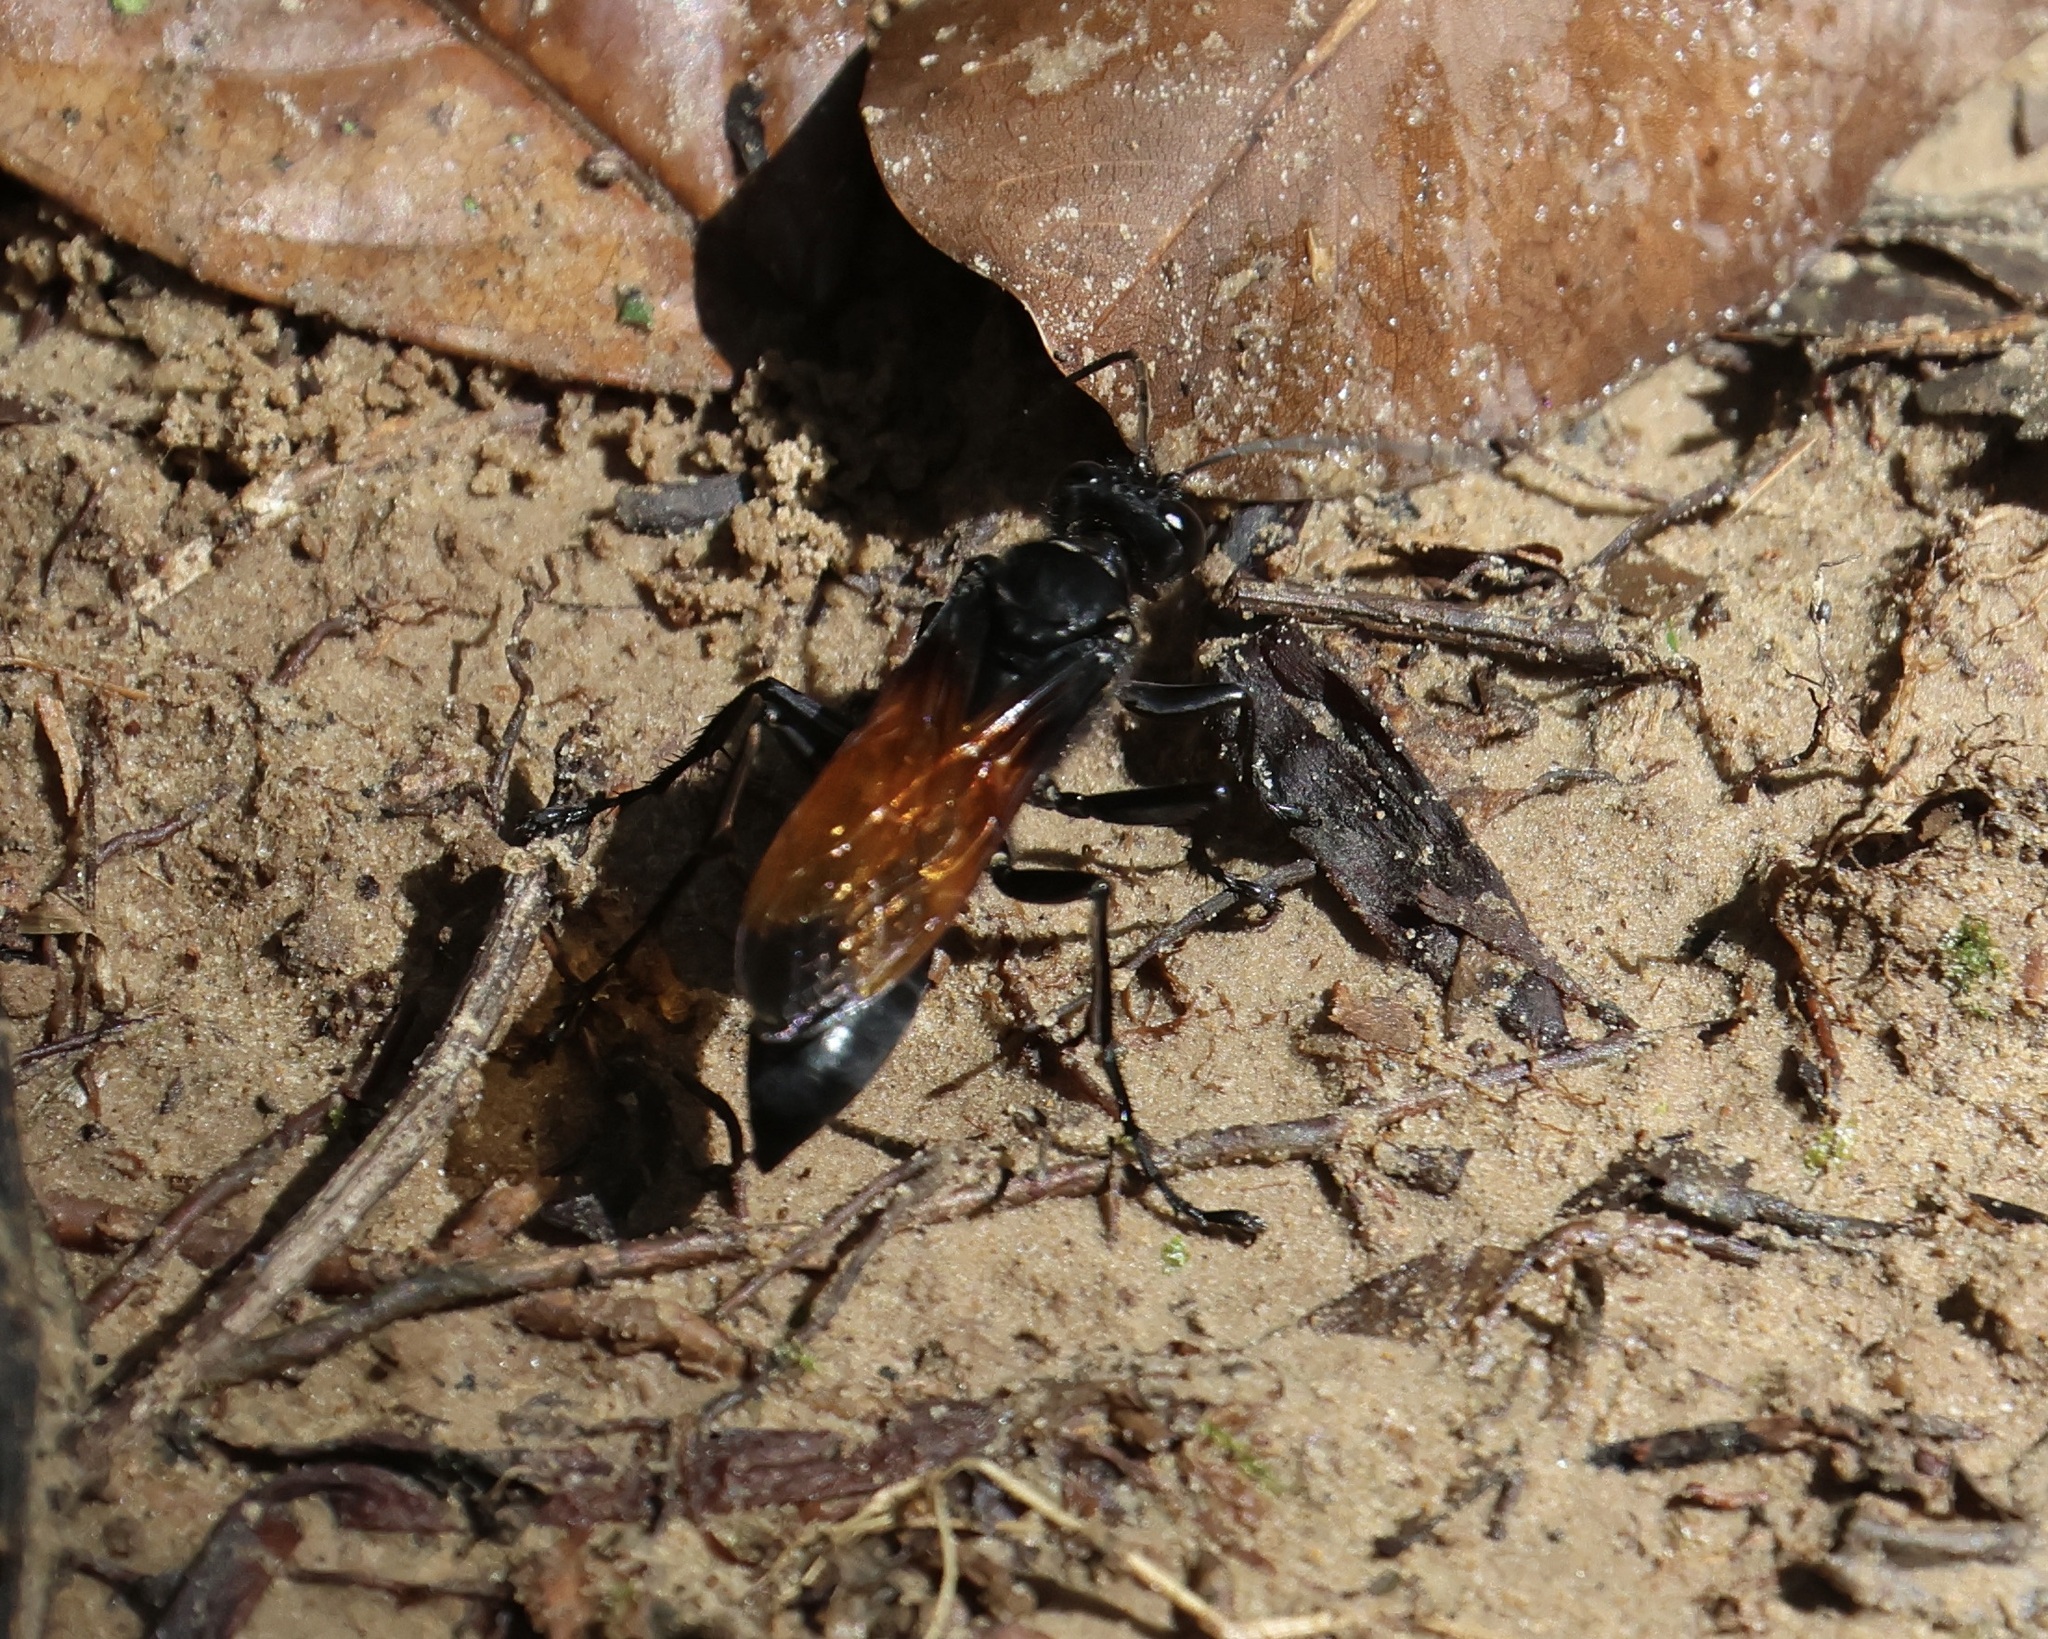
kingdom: Animalia
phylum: Arthropoda
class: Insecta
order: Hymenoptera
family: Sphecidae
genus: Sphex
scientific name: Sphex diabolicus
